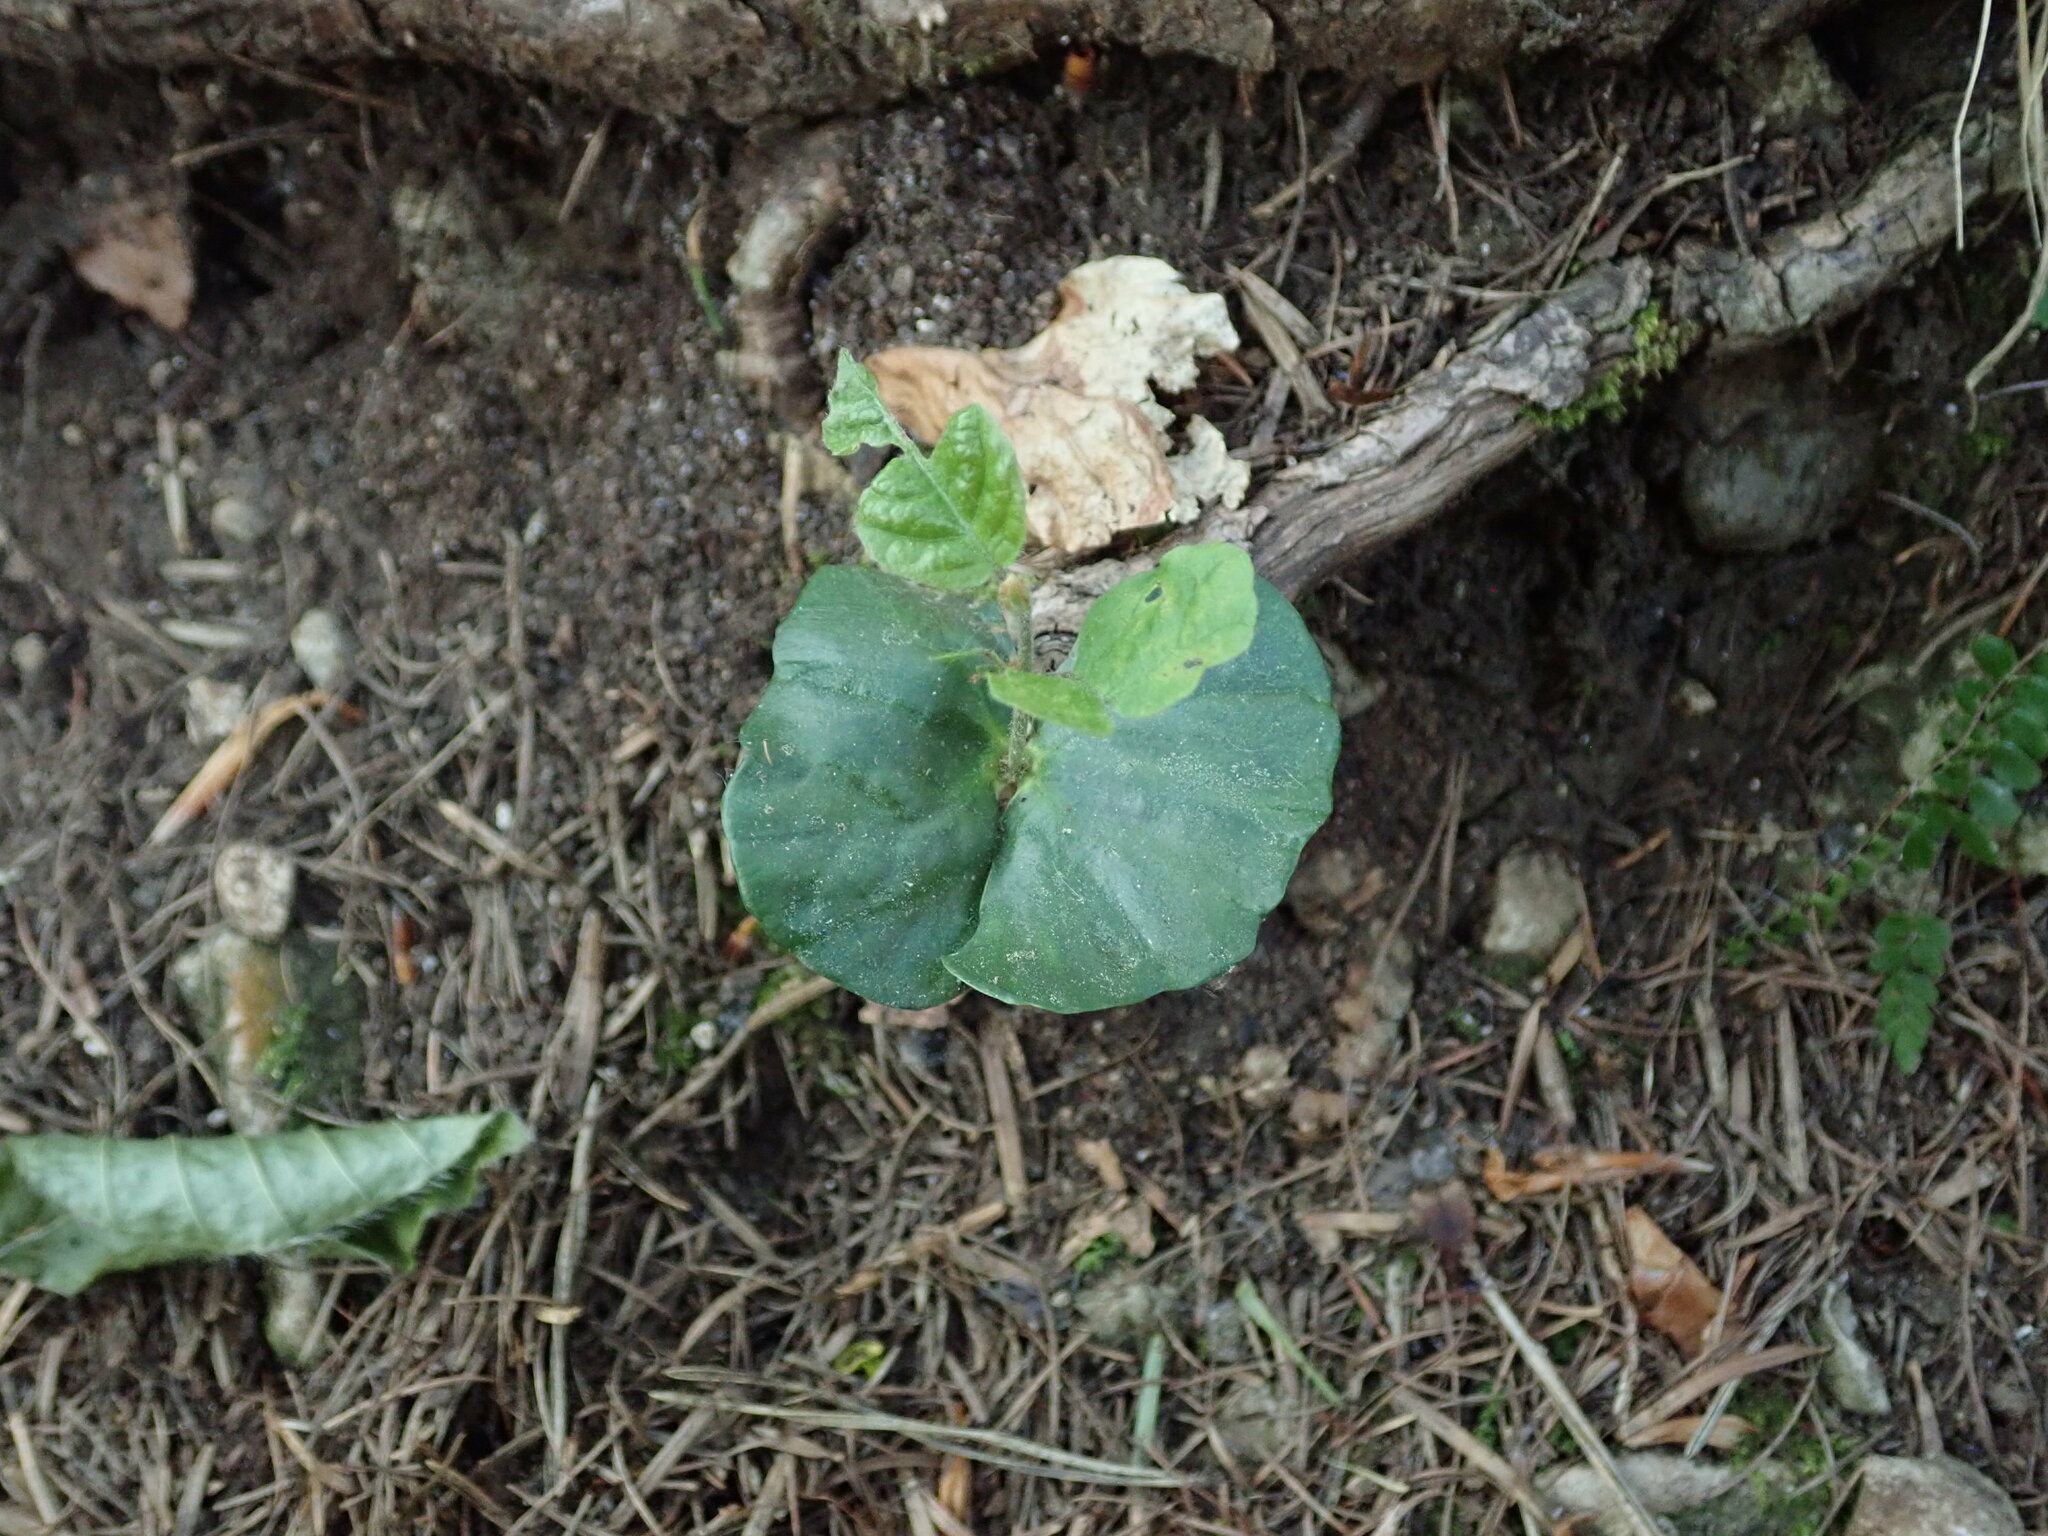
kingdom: Plantae
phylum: Tracheophyta
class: Magnoliopsida
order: Fagales
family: Fagaceae
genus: Fagus
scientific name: Fagus sylvatica
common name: Beech
